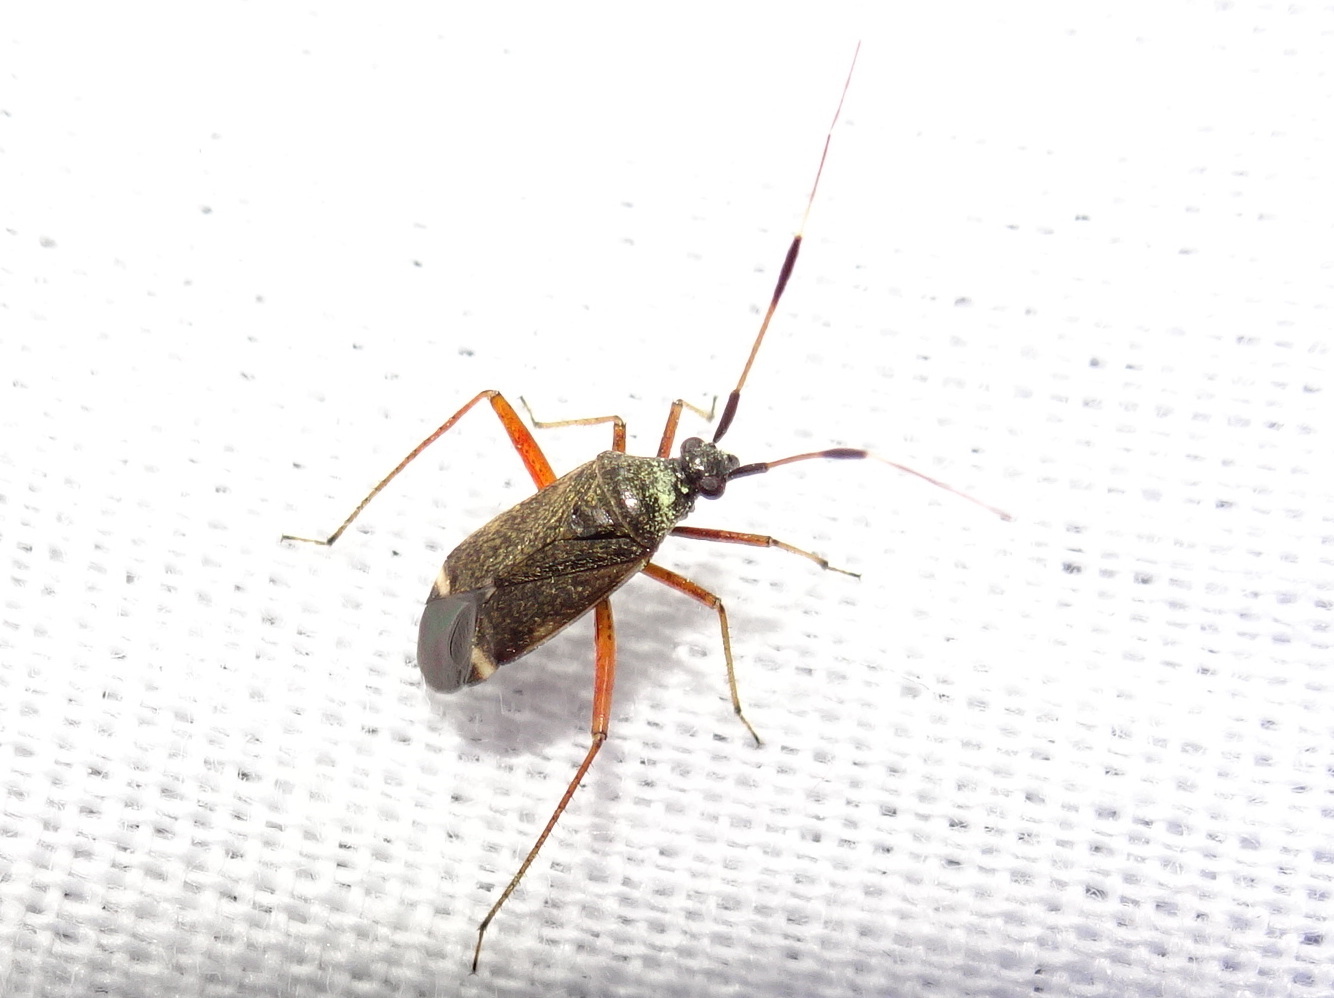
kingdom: Animalia
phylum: Arthropoda
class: Insecta
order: Hemiptera
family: Miridae
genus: Closterotomus
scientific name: Closterotomus biclavatus
